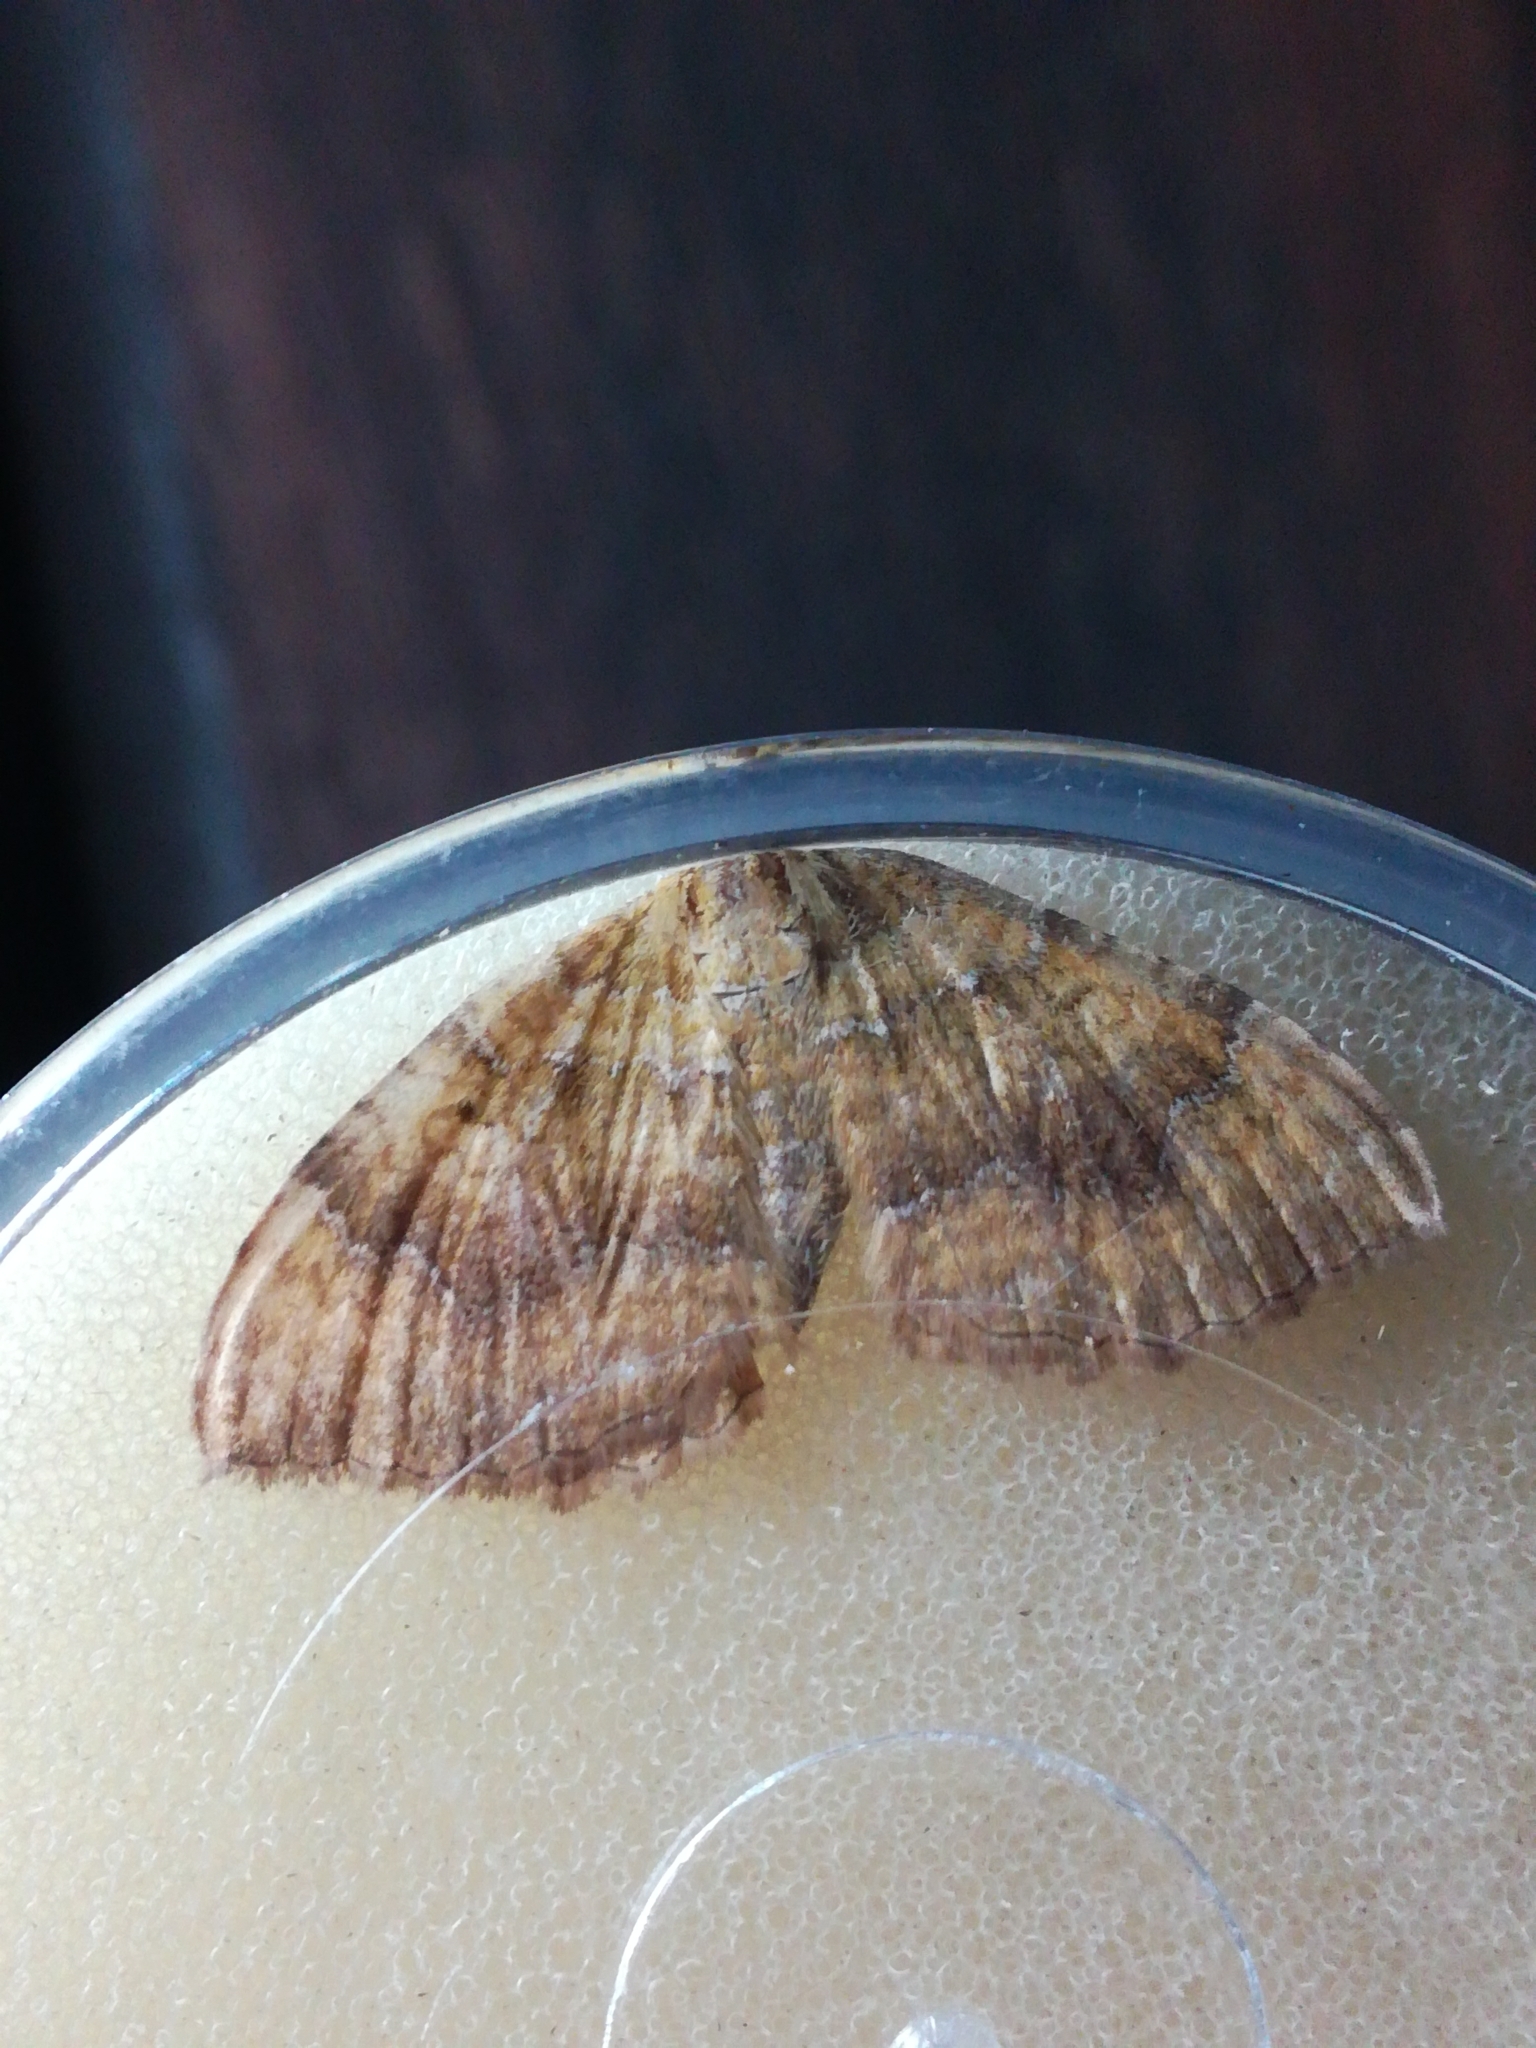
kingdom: Animalia
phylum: Arthropoda
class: Insecta
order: Lepidoptera
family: Geometridae
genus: Camptogramma
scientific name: Camptogramma bilineata
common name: Yellow shell
